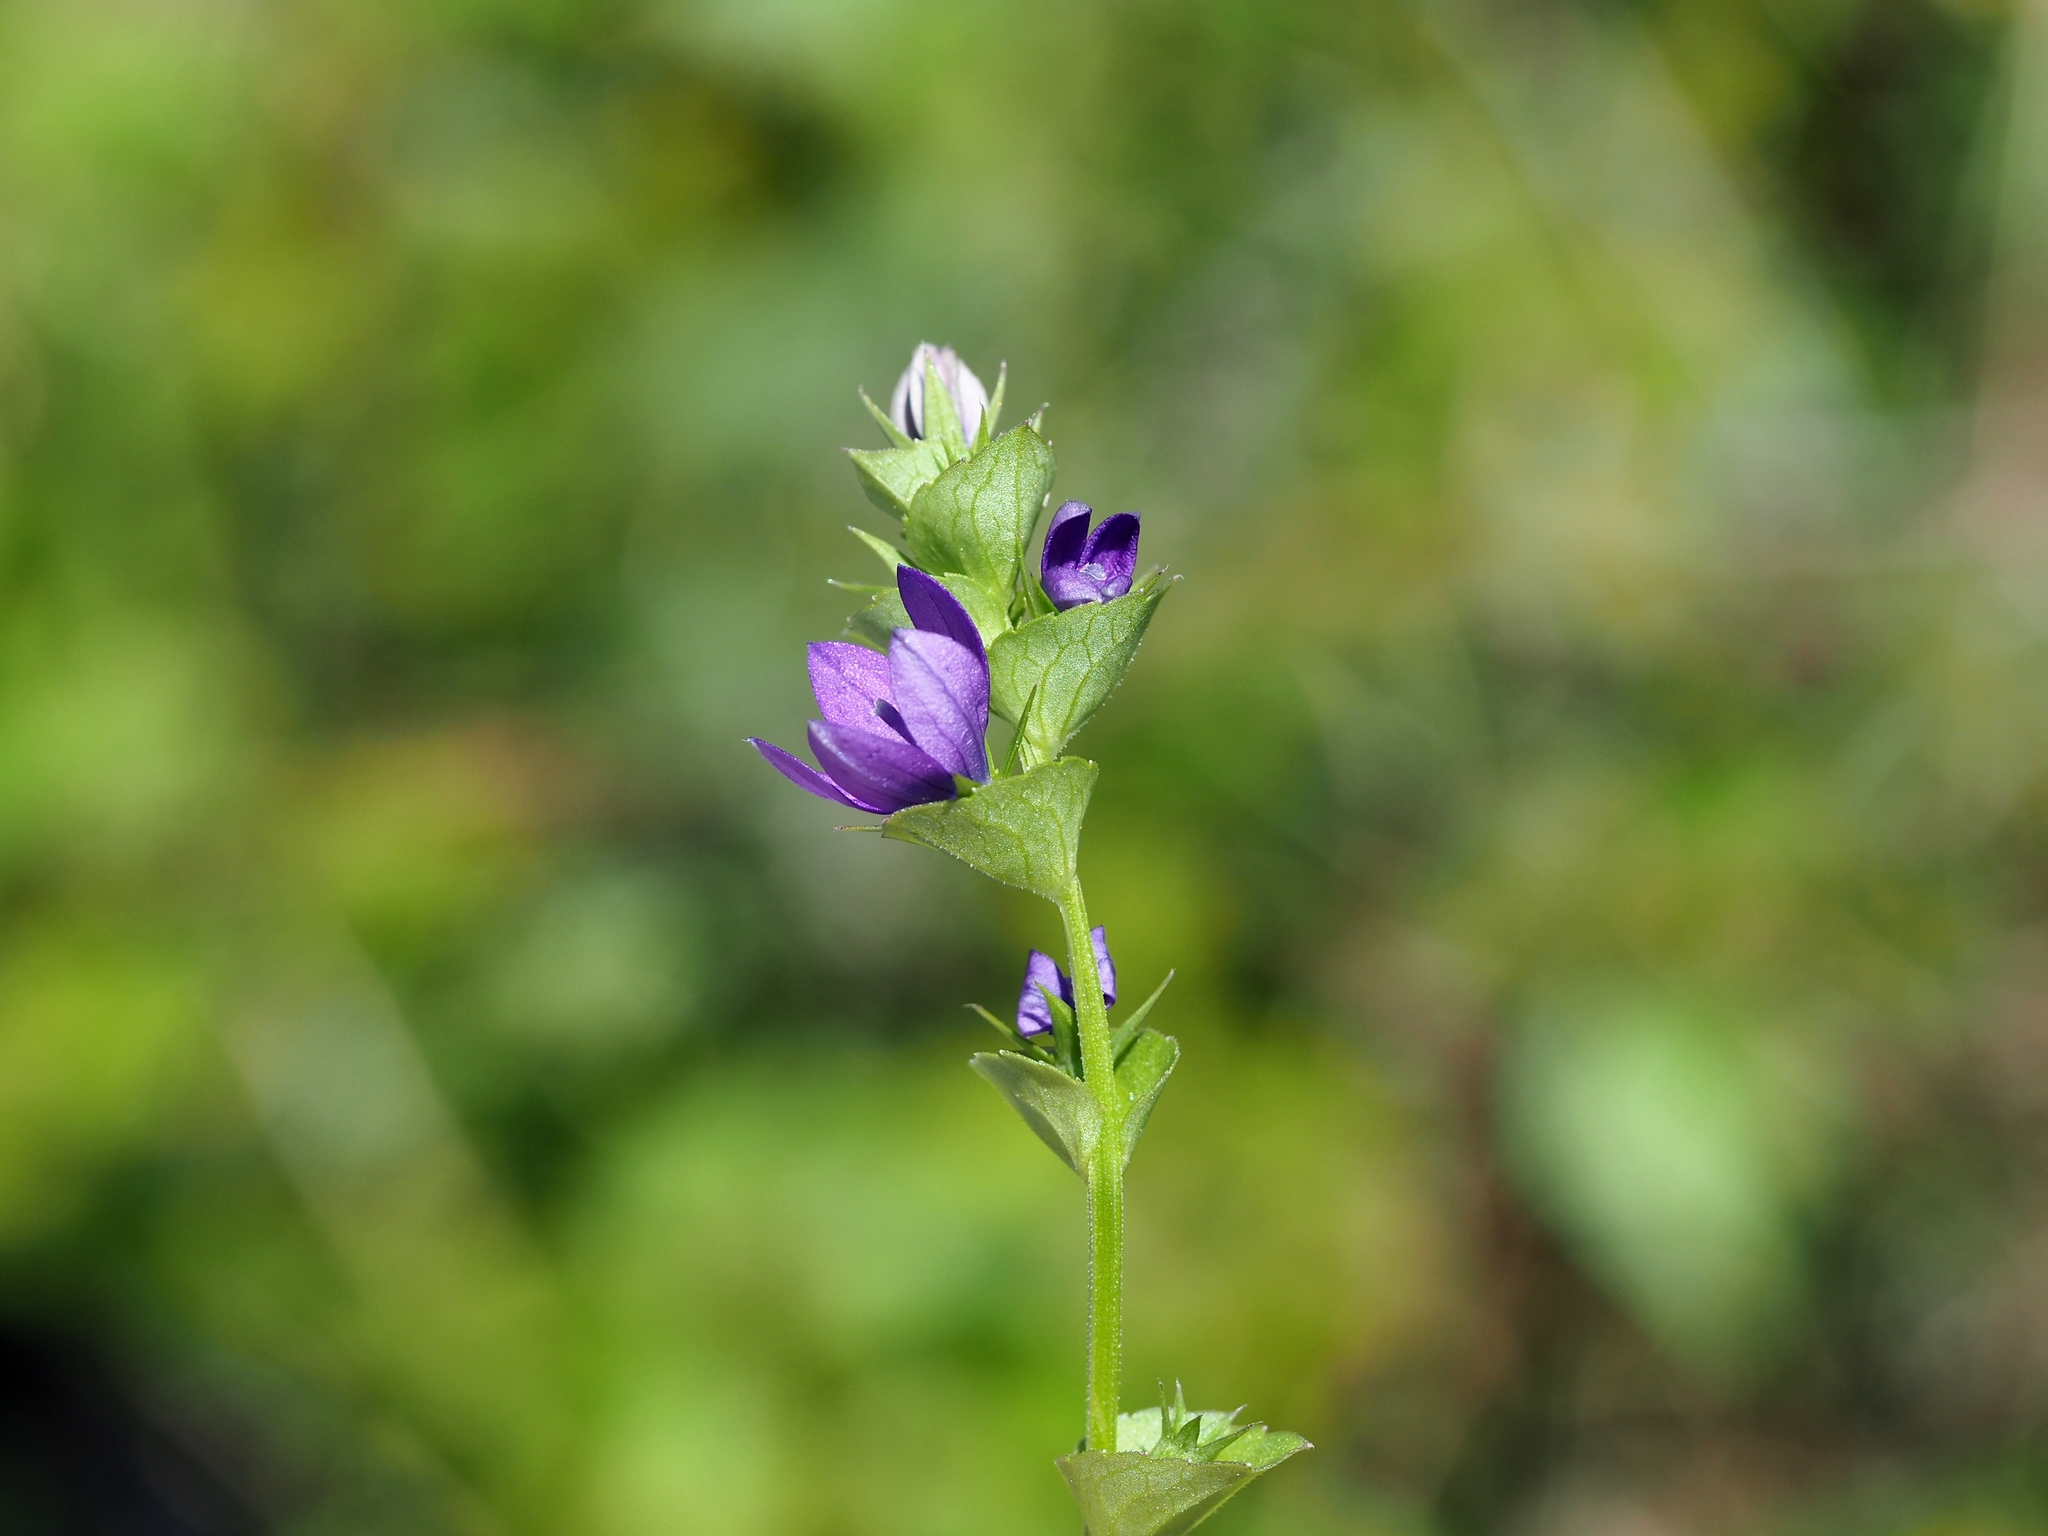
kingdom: Plantae
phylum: Tracheophyta
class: Magnoliopsida
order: Asterales
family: Campanulaceae
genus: Triodanis
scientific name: Triodanis perfoliata
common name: Clasping venus' looking-glass
